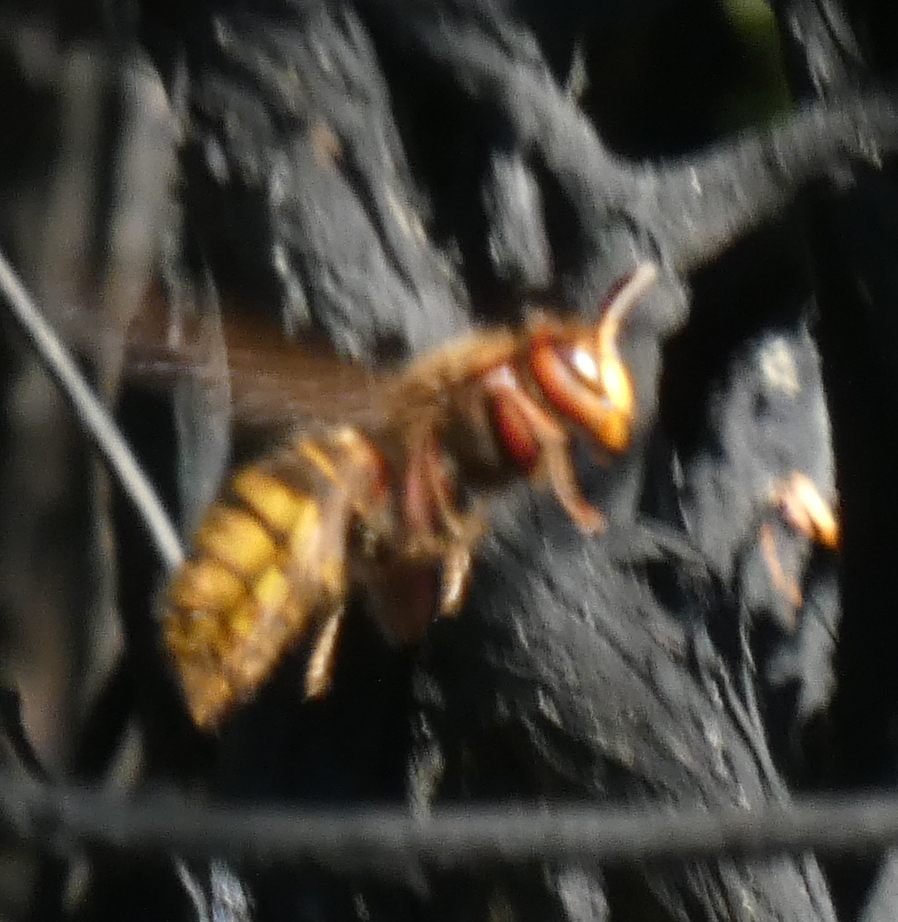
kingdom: Animalia
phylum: Arthropoda
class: Insecta
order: Hymenoptera
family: Vespidae
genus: Vespa
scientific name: Vespa crabro
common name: Hornet
